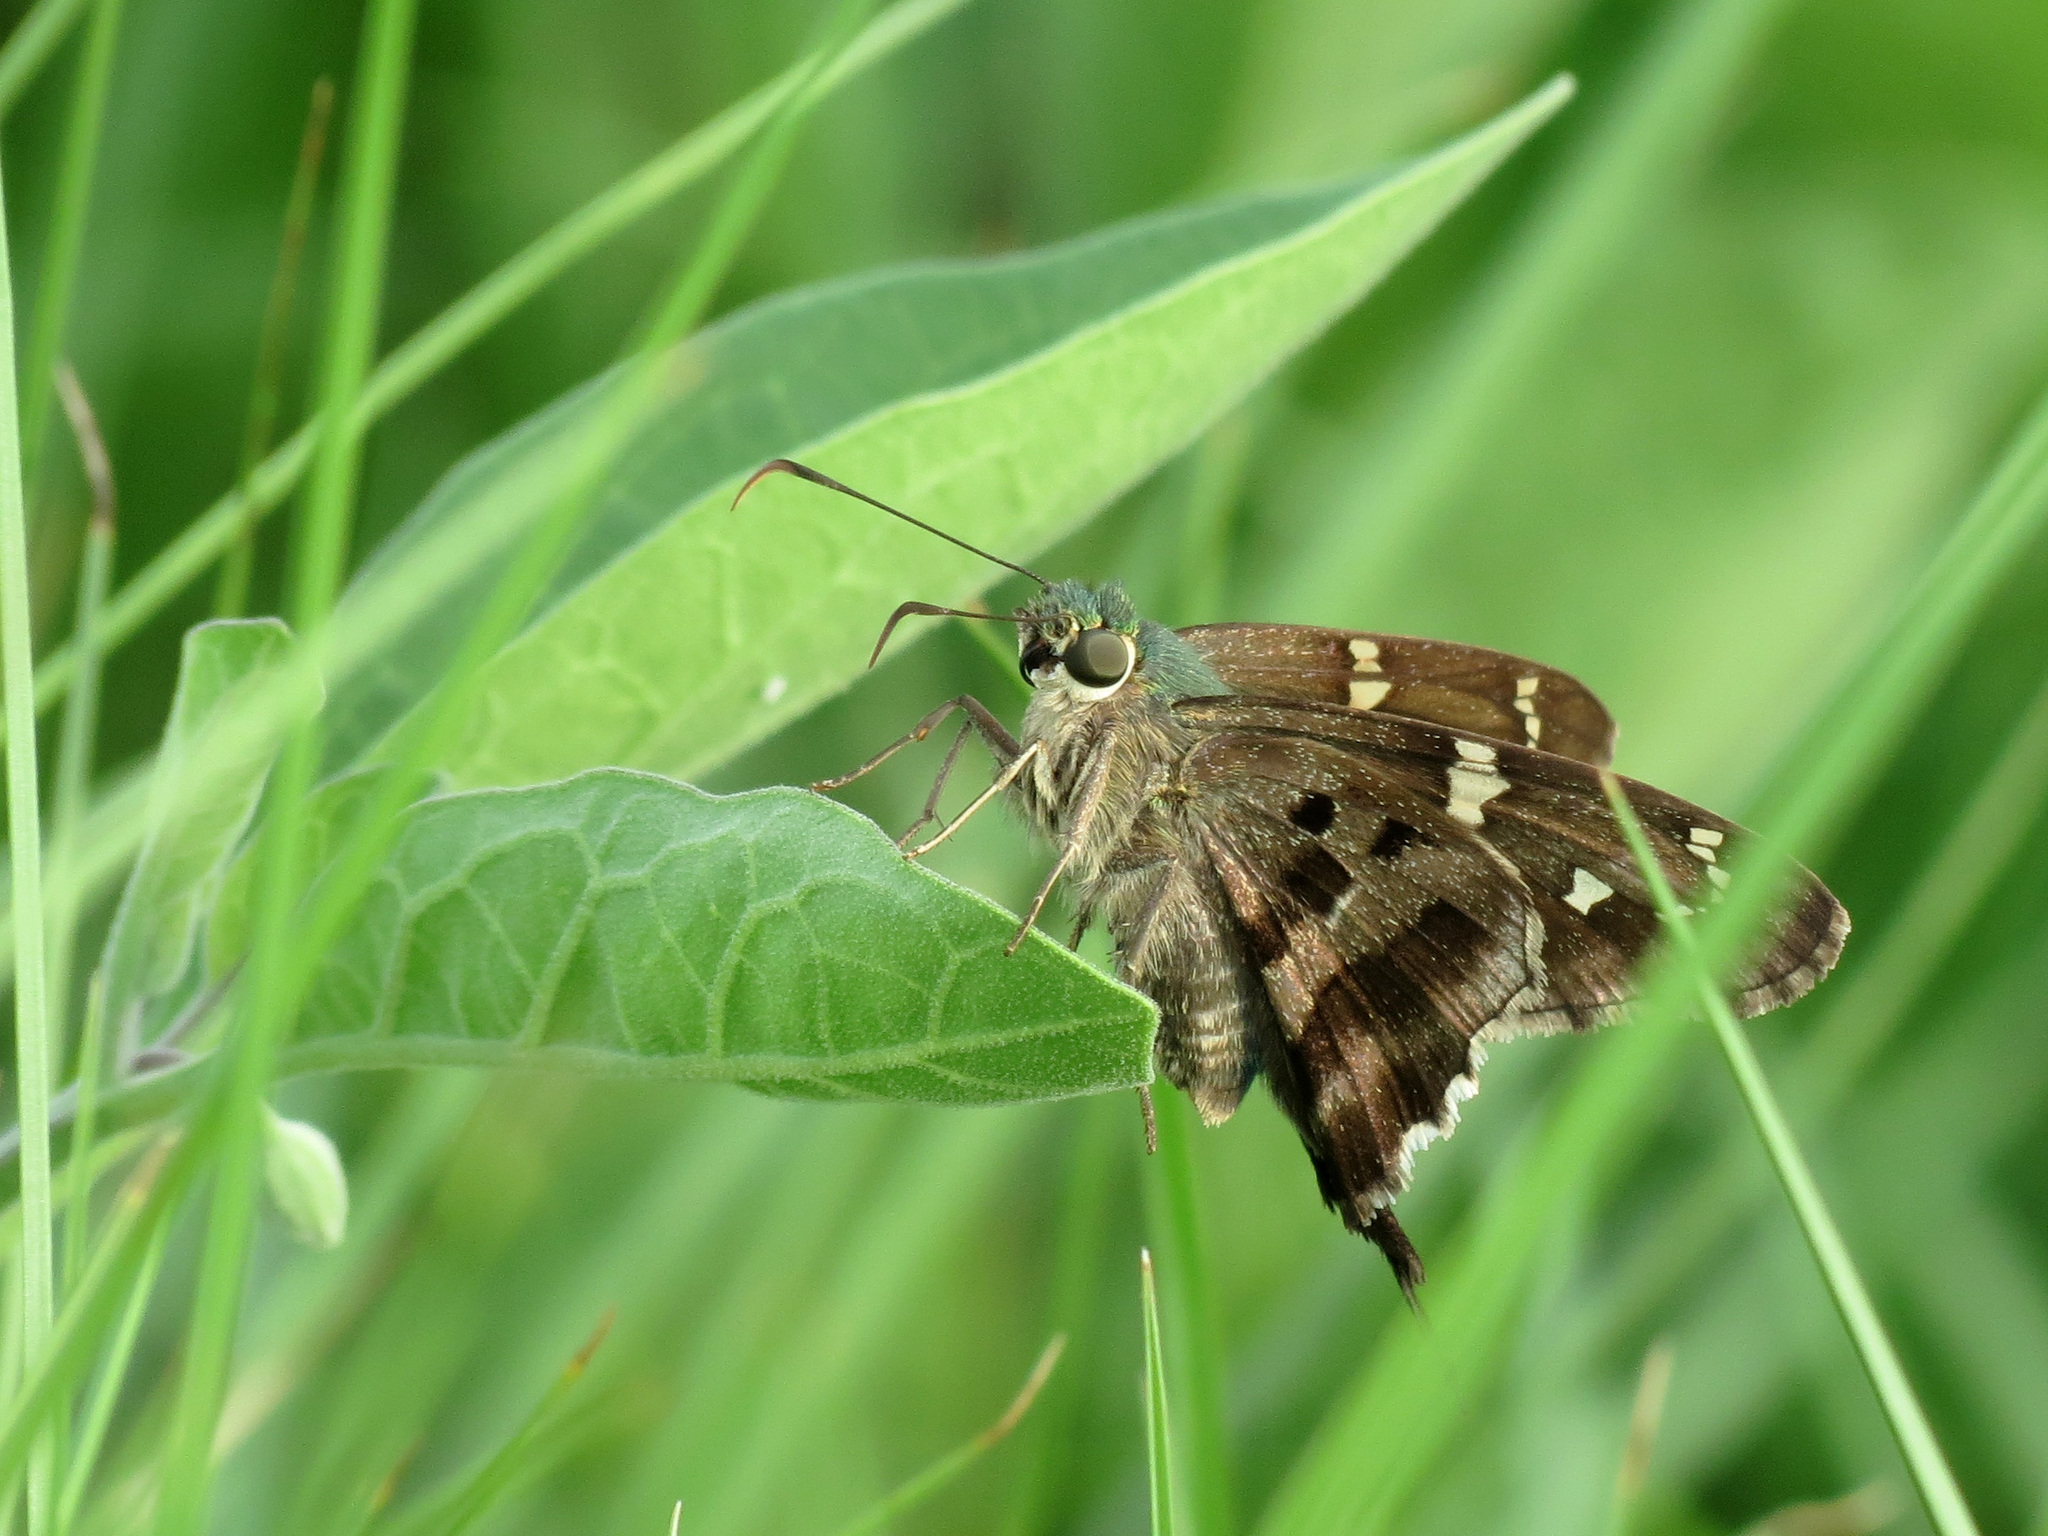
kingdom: Animalia
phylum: Arthropoda
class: Insecta
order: Lepidoptera
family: Hesperiidae
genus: Urbanus
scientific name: Urbanus proteus
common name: Long-tailed skipper
